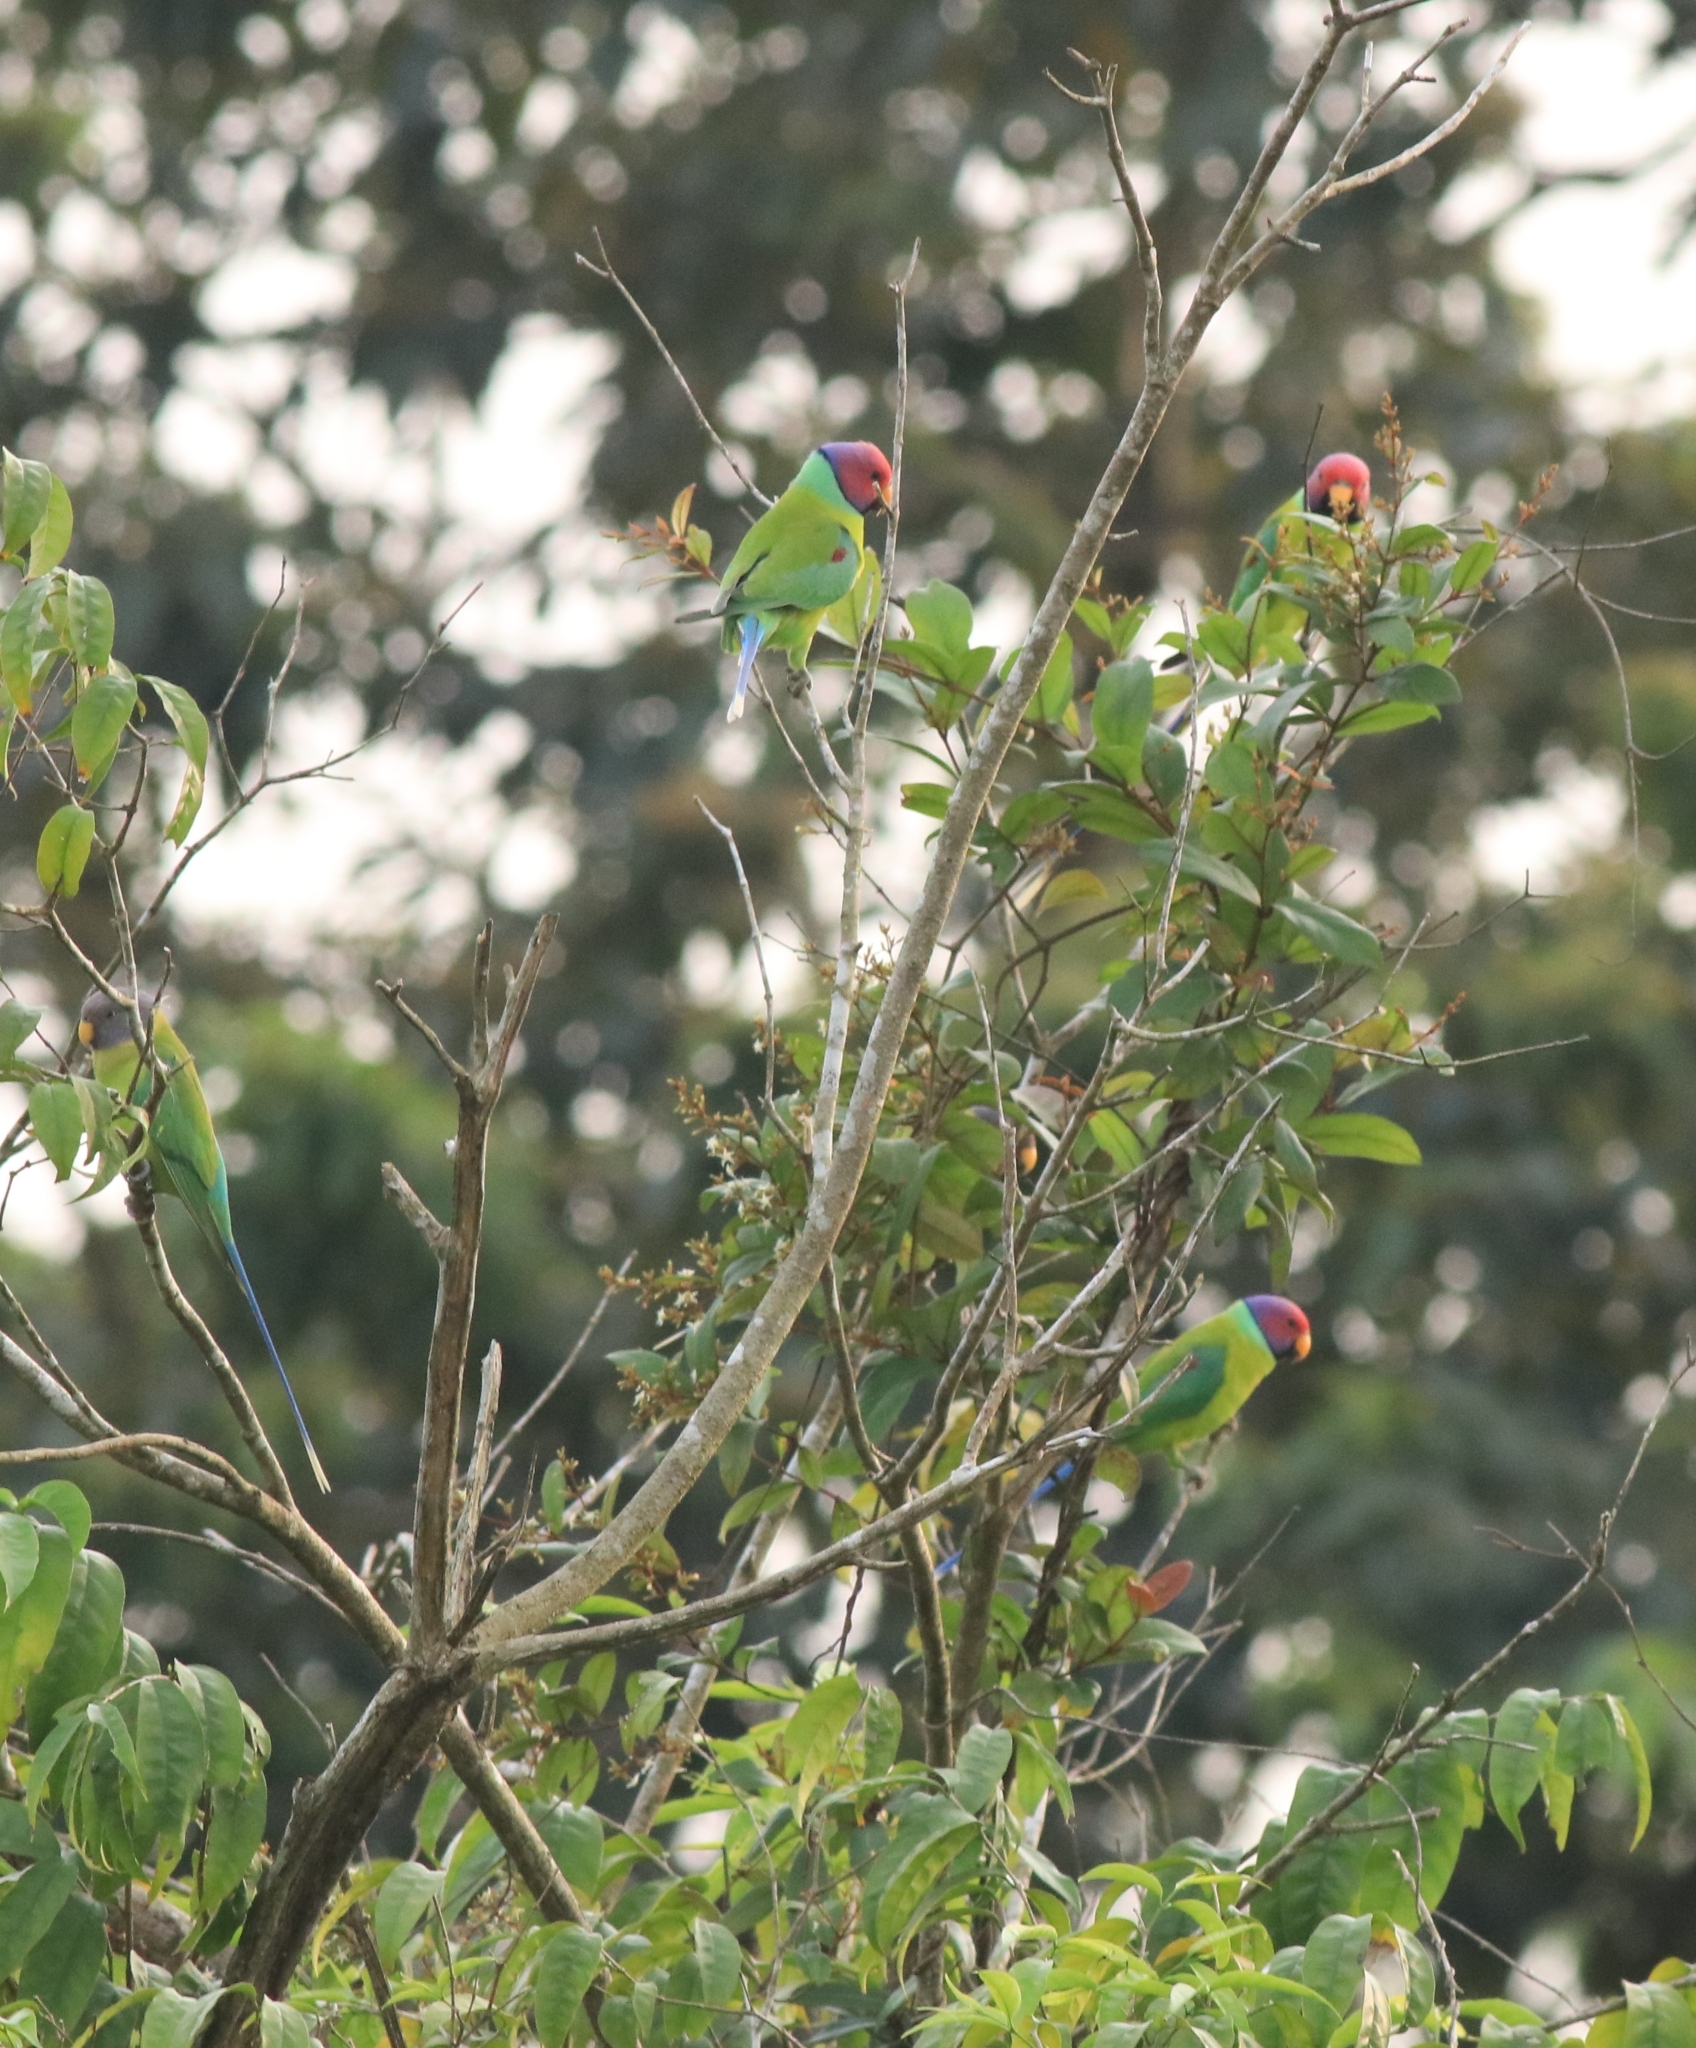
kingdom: Animalia
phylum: Chordata
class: Aves
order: Psittaciformes
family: Psittacidae
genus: Psittacula
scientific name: Psittacula cyanocephala
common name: Plum-headed parakeet
